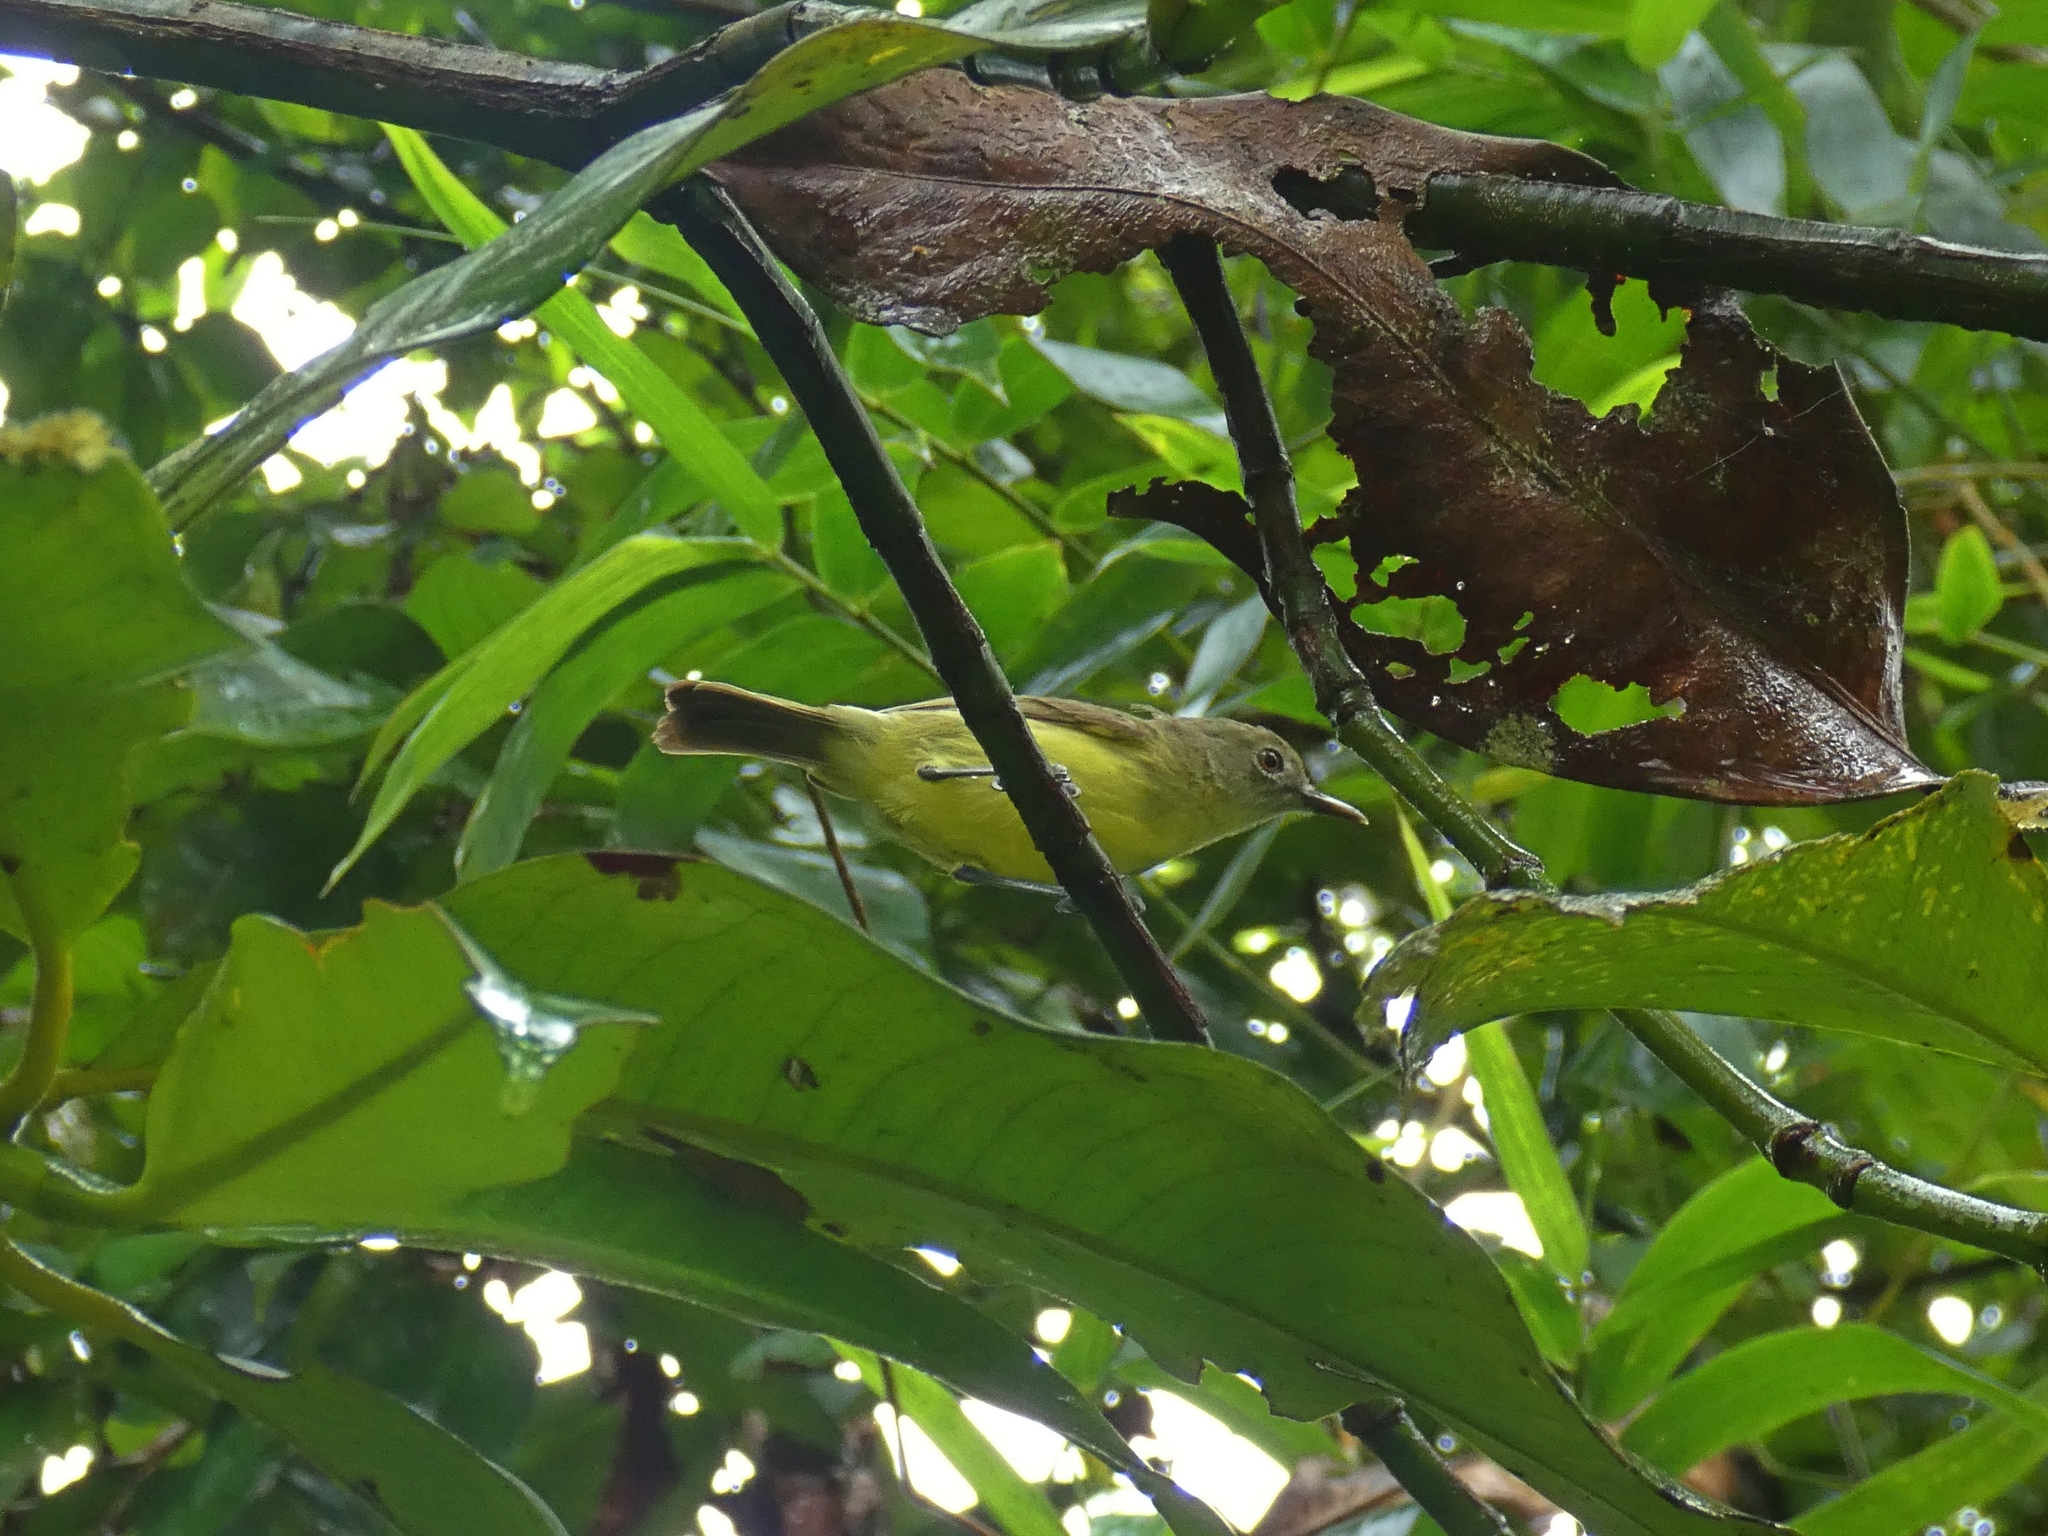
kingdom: Animalia
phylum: Chordata
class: Aves
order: Passeriformes
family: Acanthizidae
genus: Gerygone
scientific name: Gerygone palpebrosa
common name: Fairy gerygone
